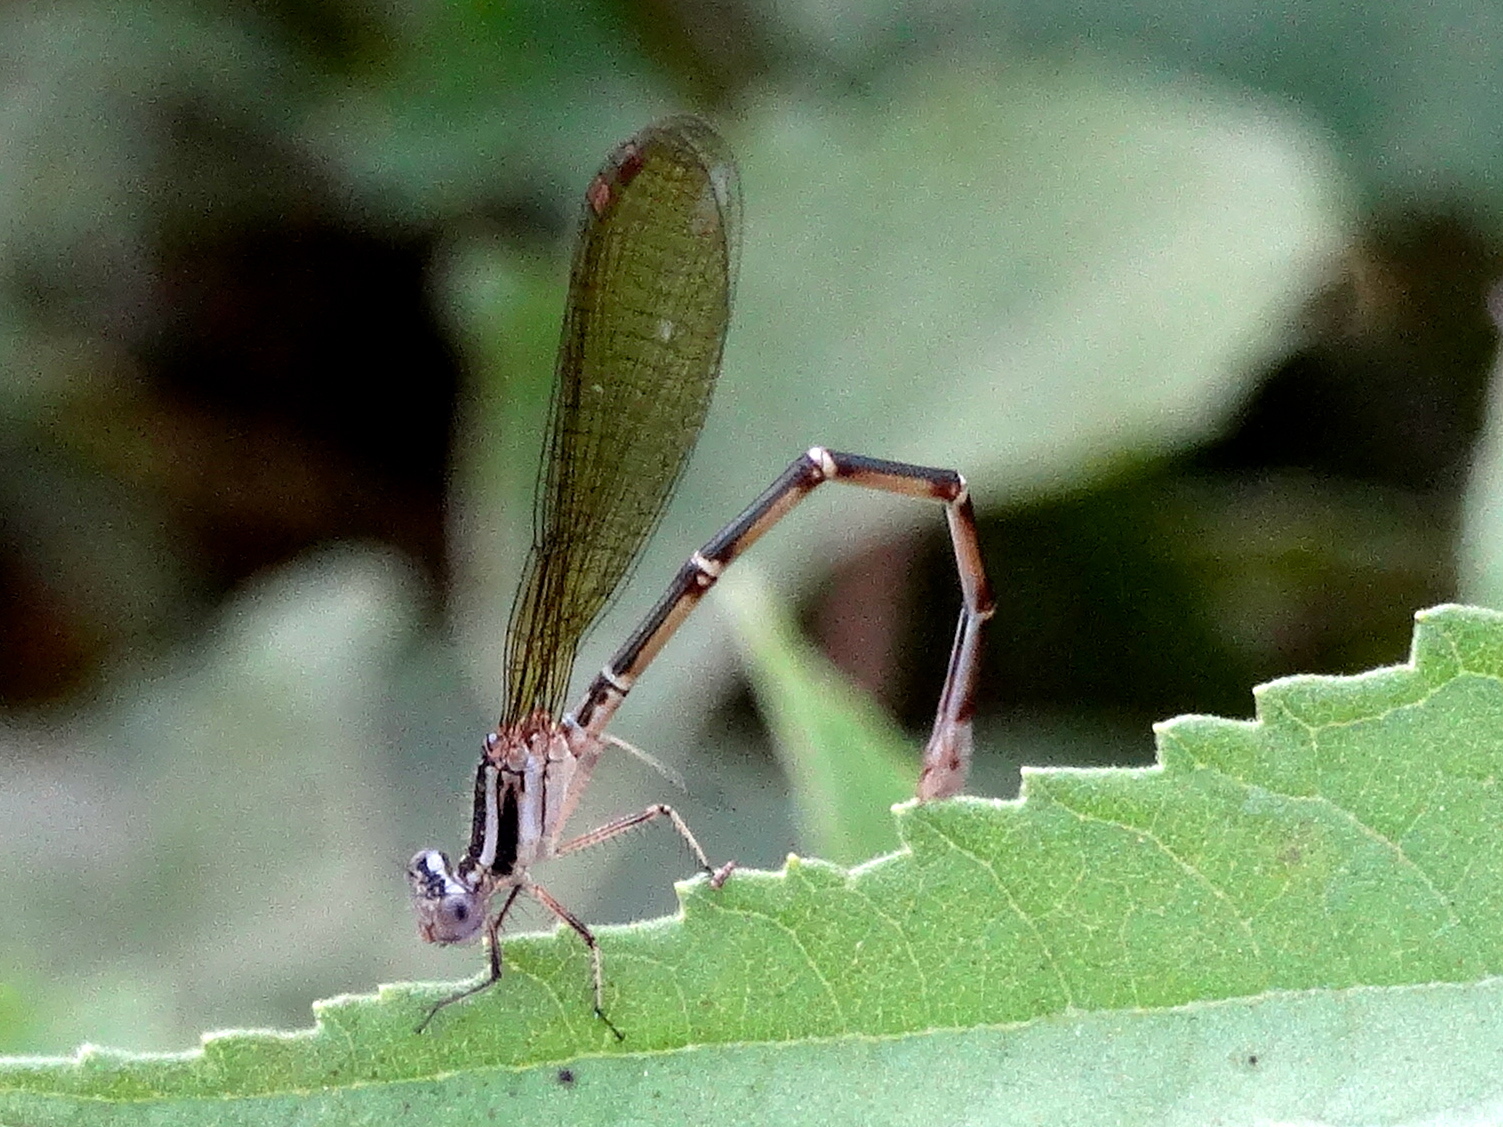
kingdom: Animalia
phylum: Arthropoda
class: Insecta
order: Odonata
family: Coenagrionidae
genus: Argia
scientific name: Argia
